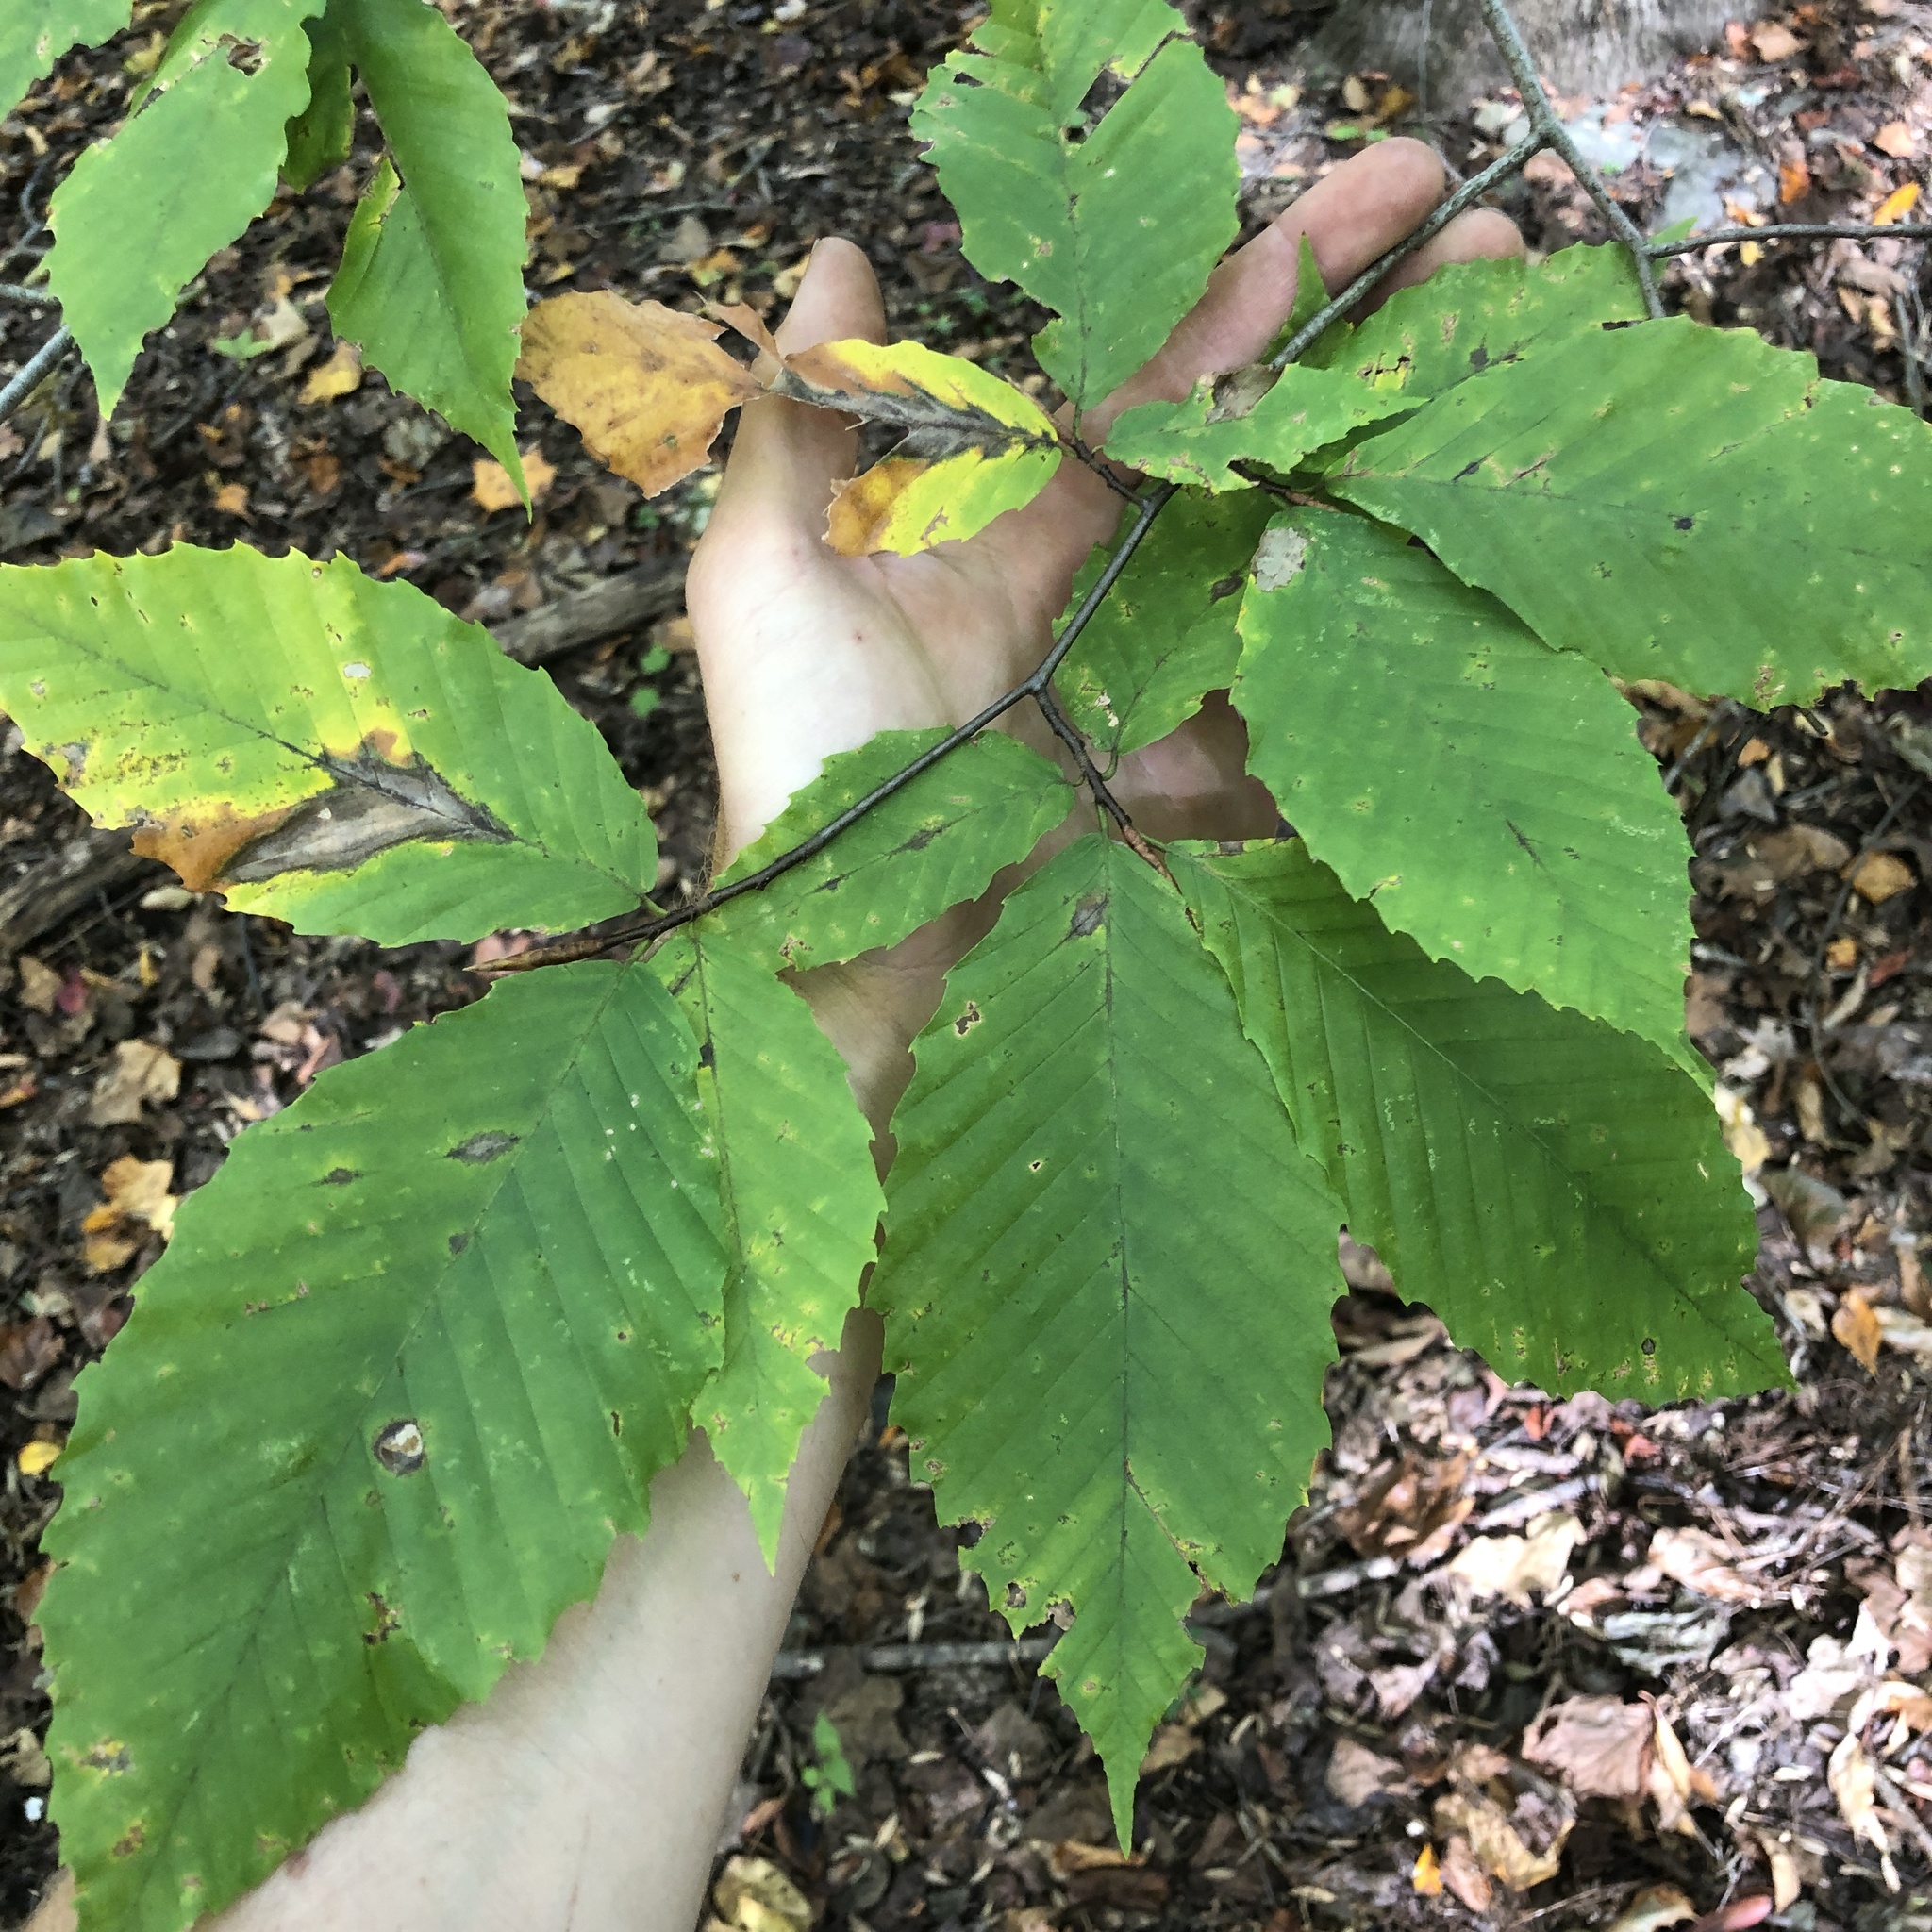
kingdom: Plantae
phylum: Tracheophyta
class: Magnoliopsida
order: Fagales
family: Fagaceae
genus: Fagus
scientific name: Fagus grandifolia
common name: American beech
